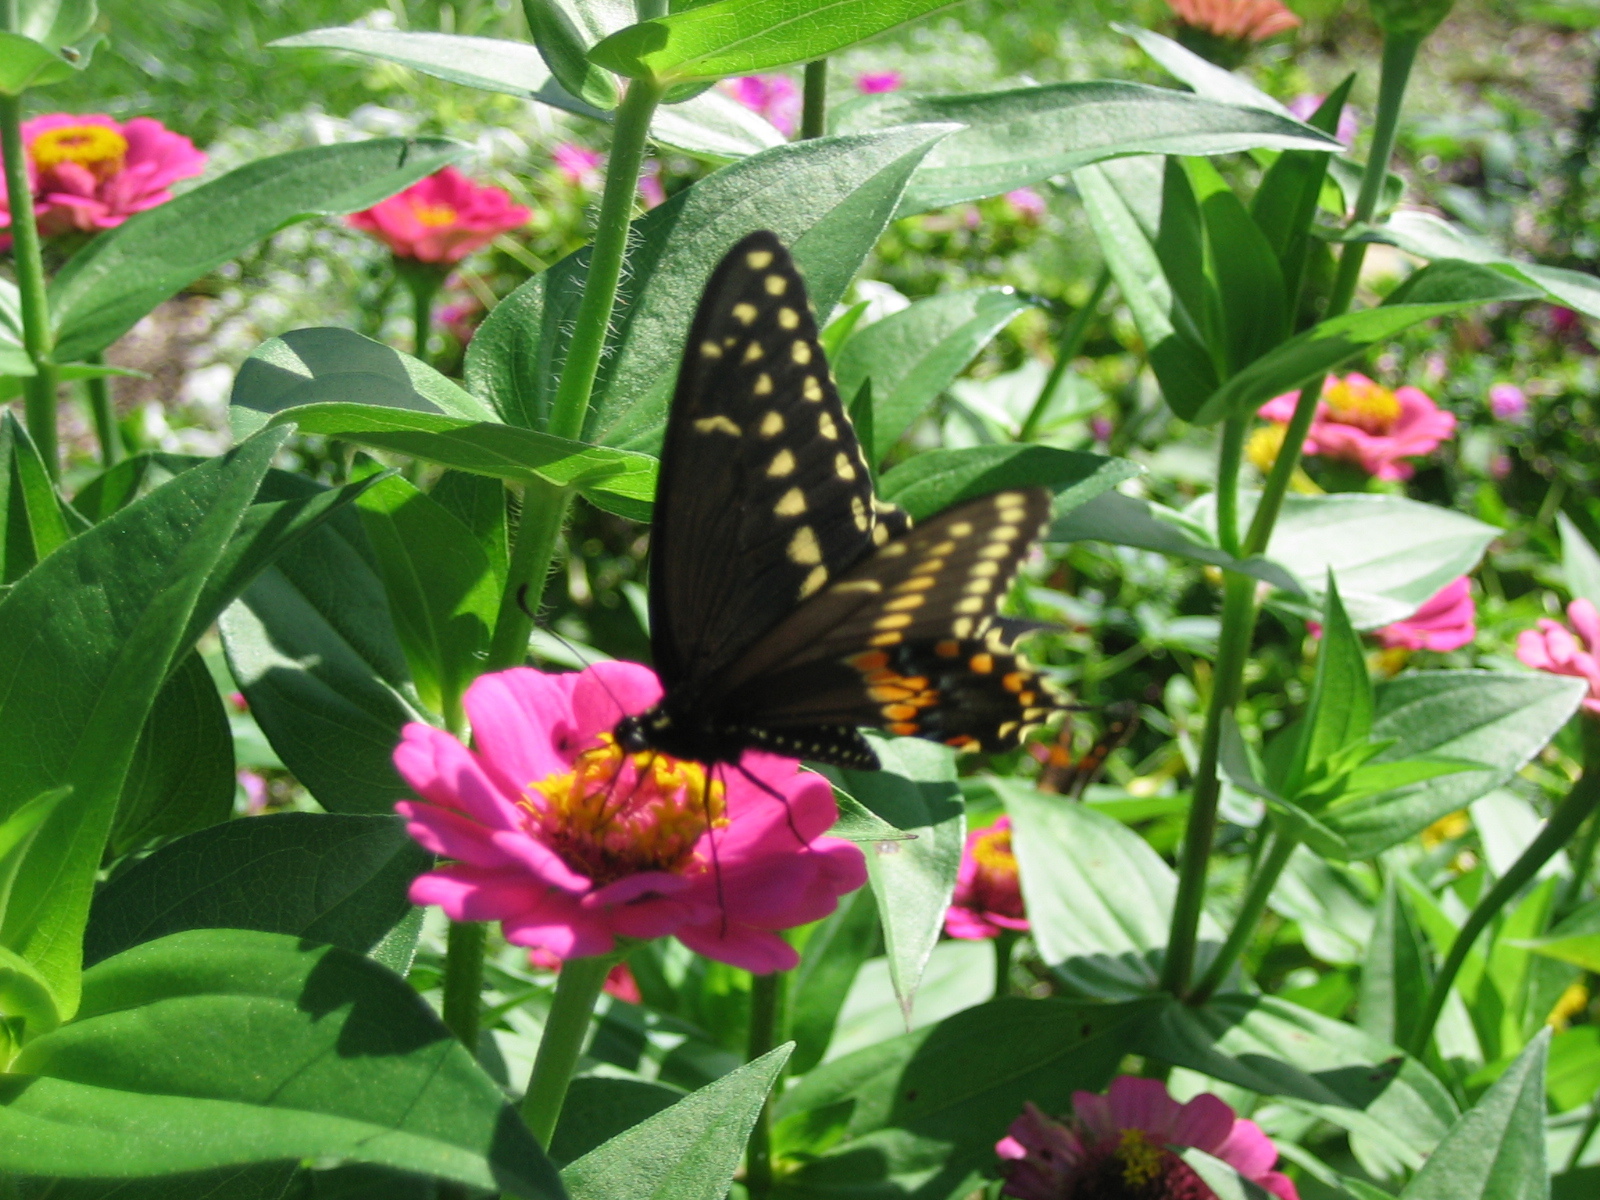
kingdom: Animalia
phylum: Arthropoda
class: Insecta
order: Lepidoptera
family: Papilionidae
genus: Papilio
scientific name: Papilio polyxenes
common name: Black swallowtail
